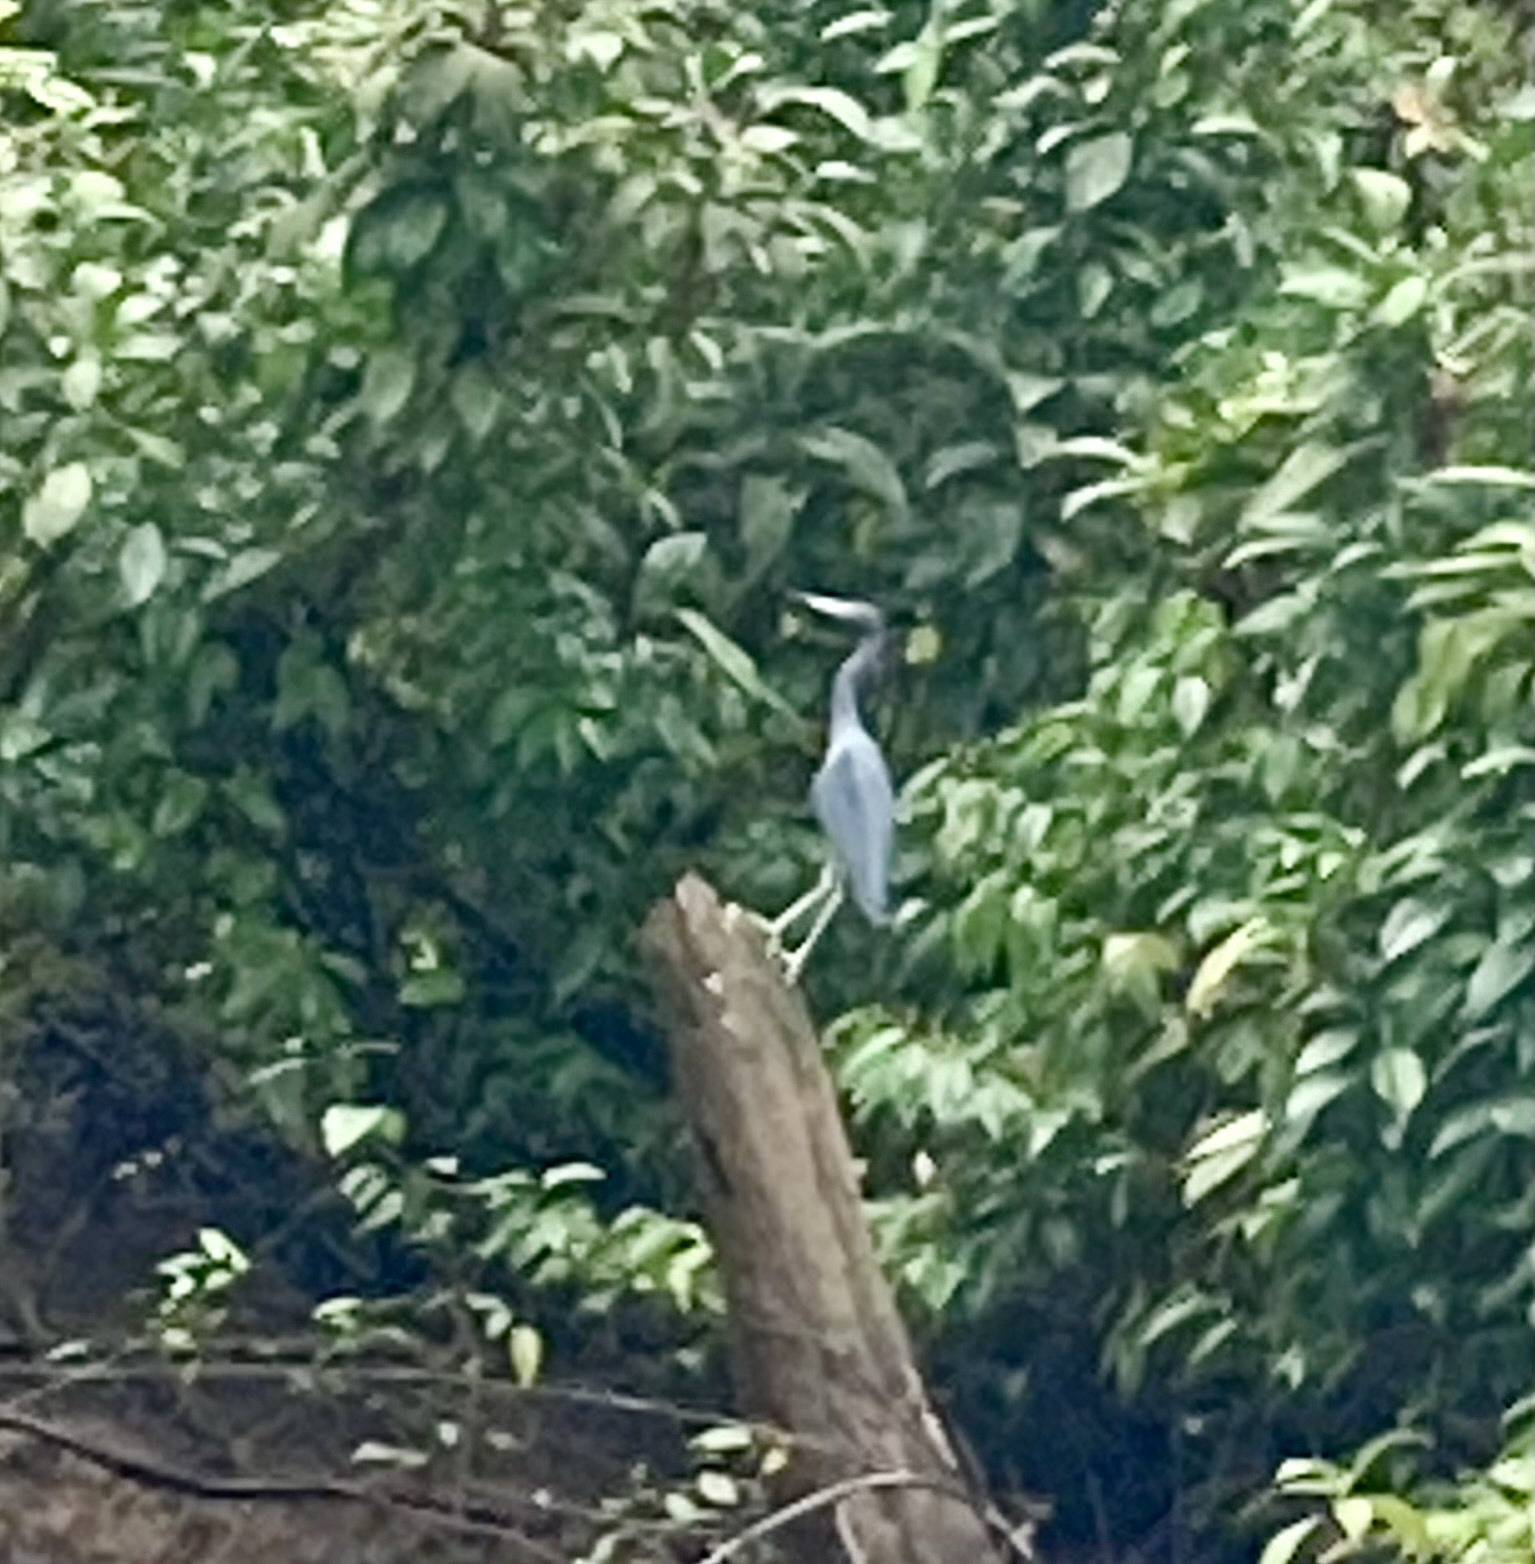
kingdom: Animalia
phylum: Chordata
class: Aves
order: Pelecaniformes
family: Ardeidae
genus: Egretta
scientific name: Egretta caerulea
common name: Little blue heron
